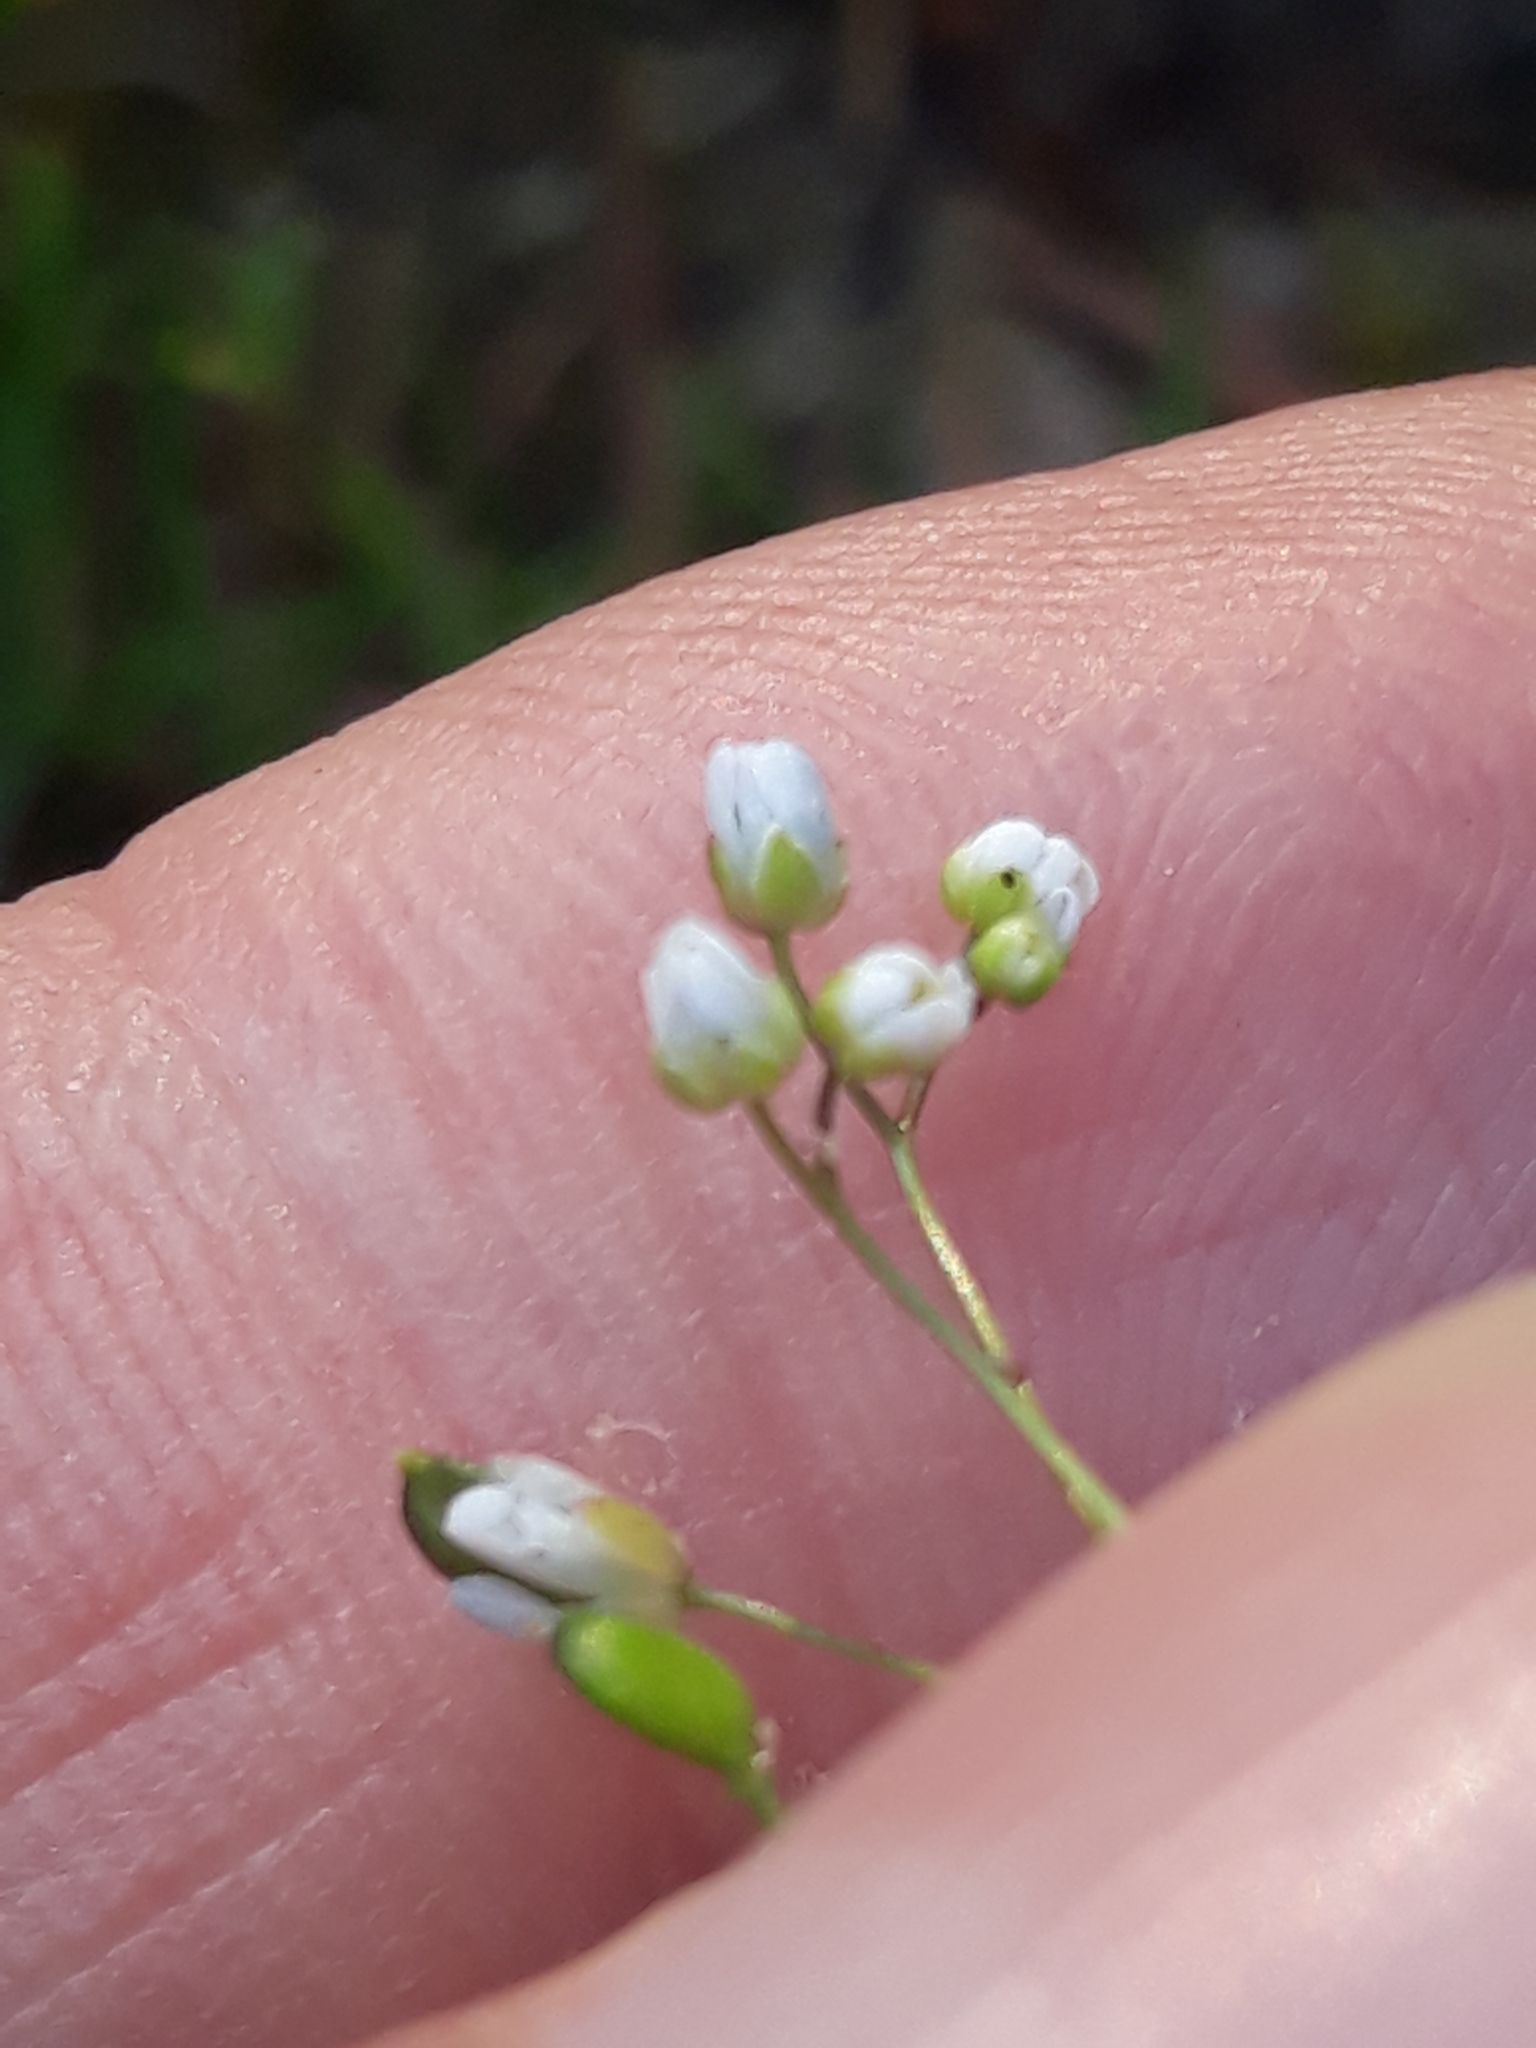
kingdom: Plantae
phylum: Tracheophyta
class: Magnoliopsida
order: Brassicales
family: Brassicaceae
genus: Draba
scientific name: Draba verna
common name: Spring draba
